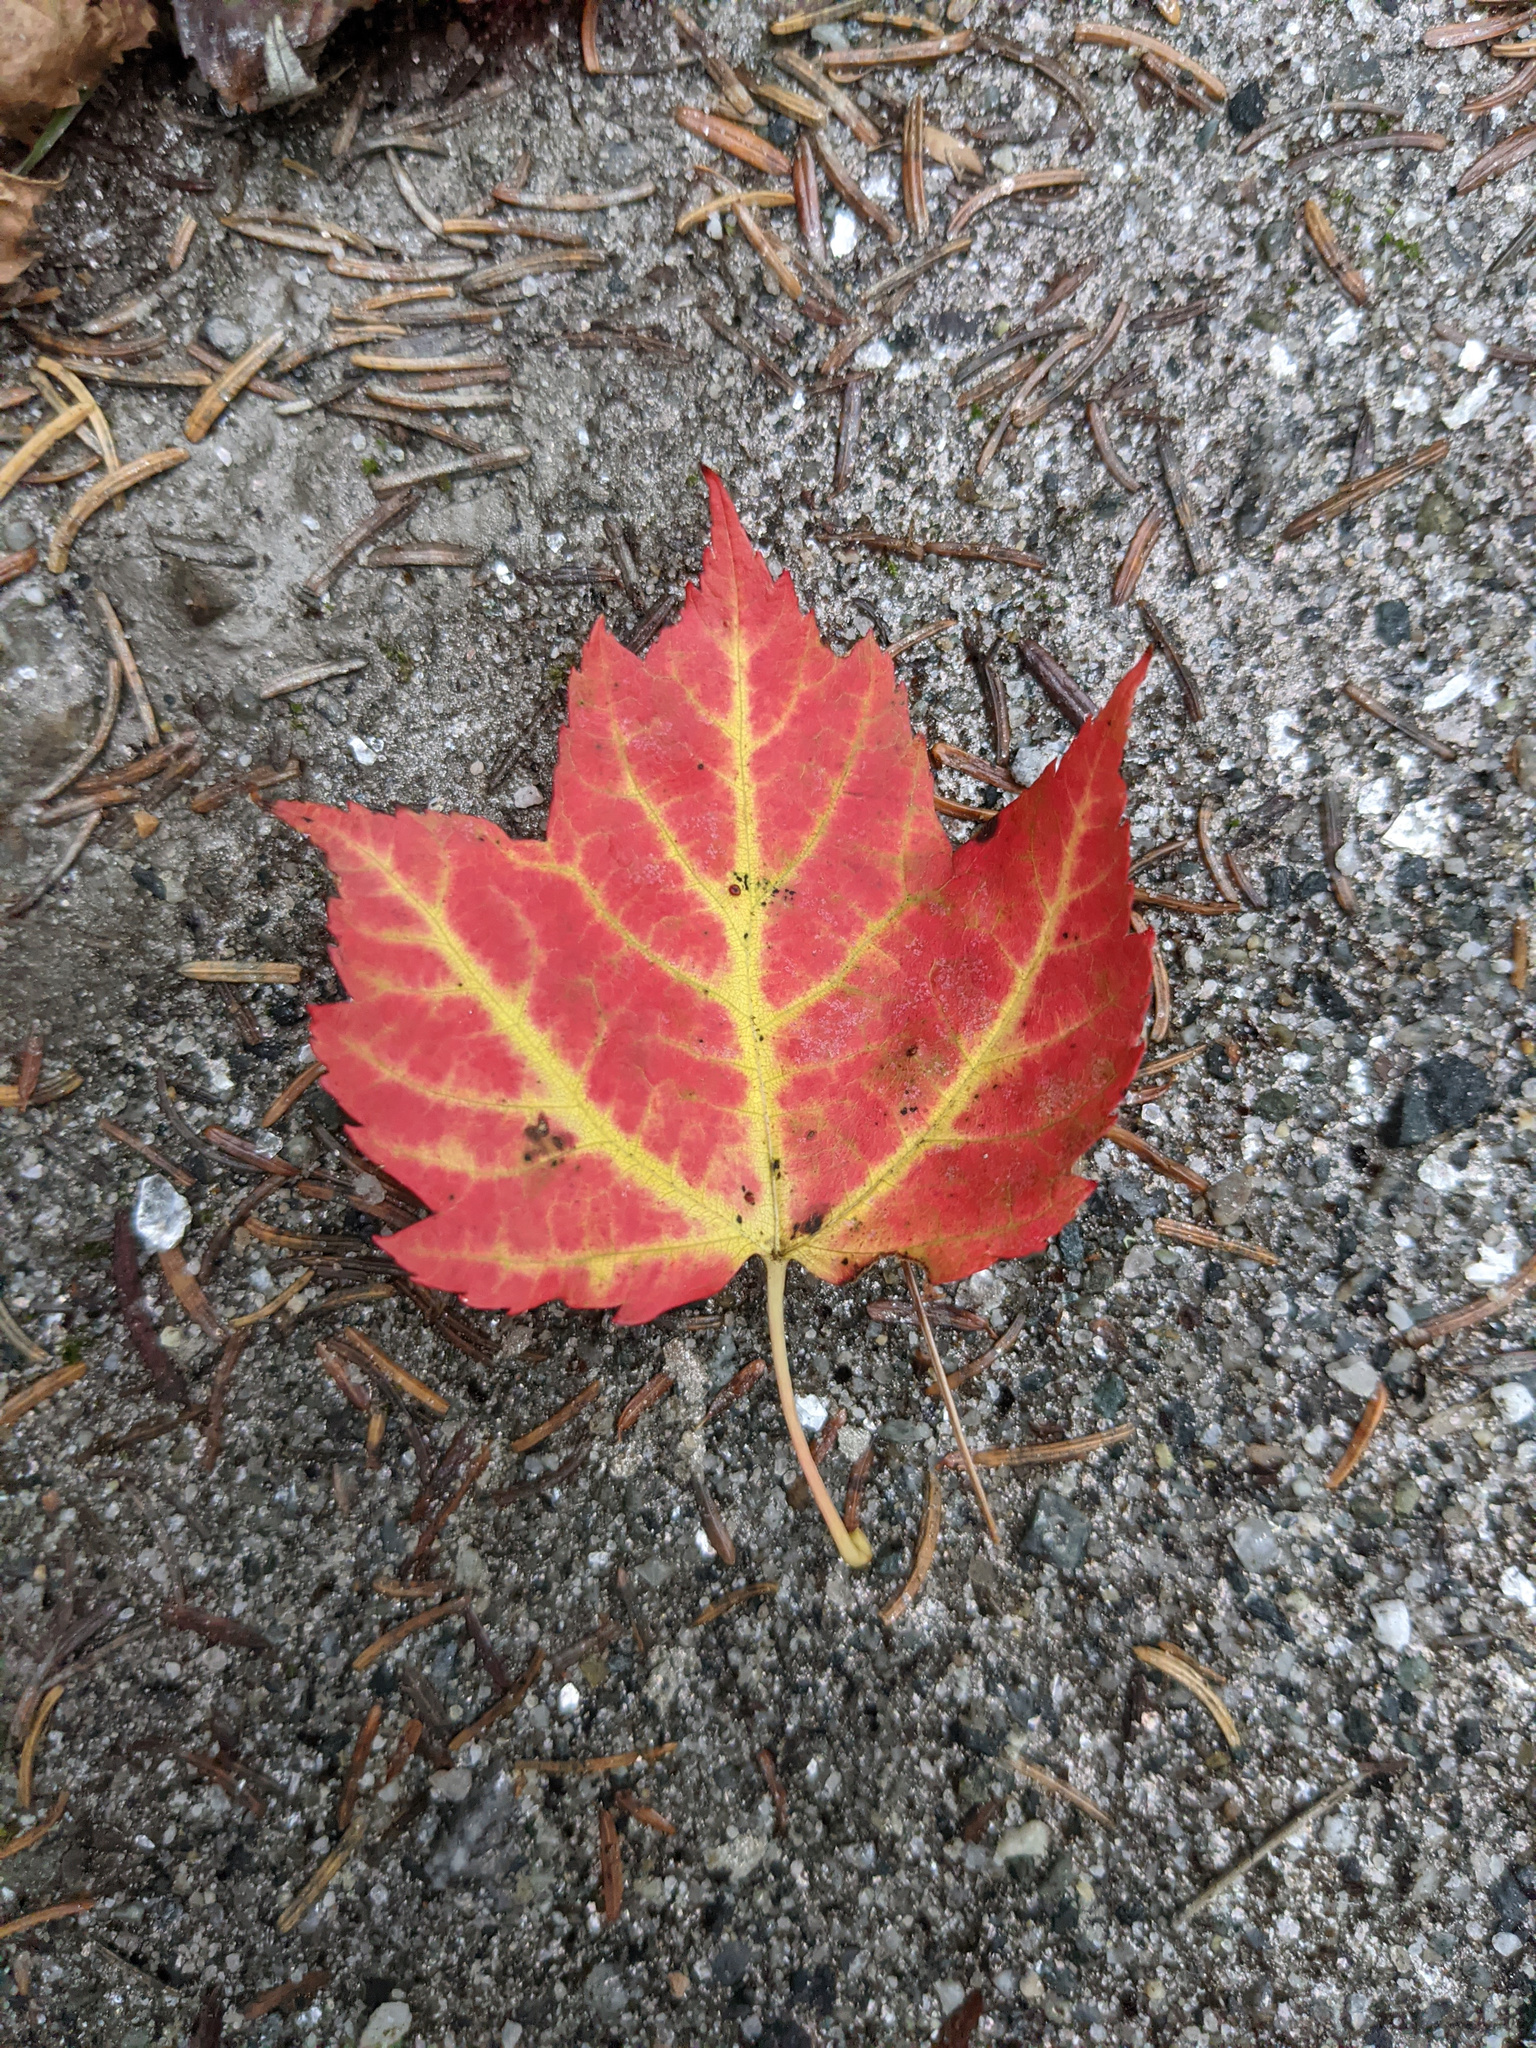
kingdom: Plantae
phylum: Tracheophyta
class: Magnoliopsida
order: Sapindales
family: Sapindaceae
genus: Acer
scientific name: Acer rubrum
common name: Red maple
